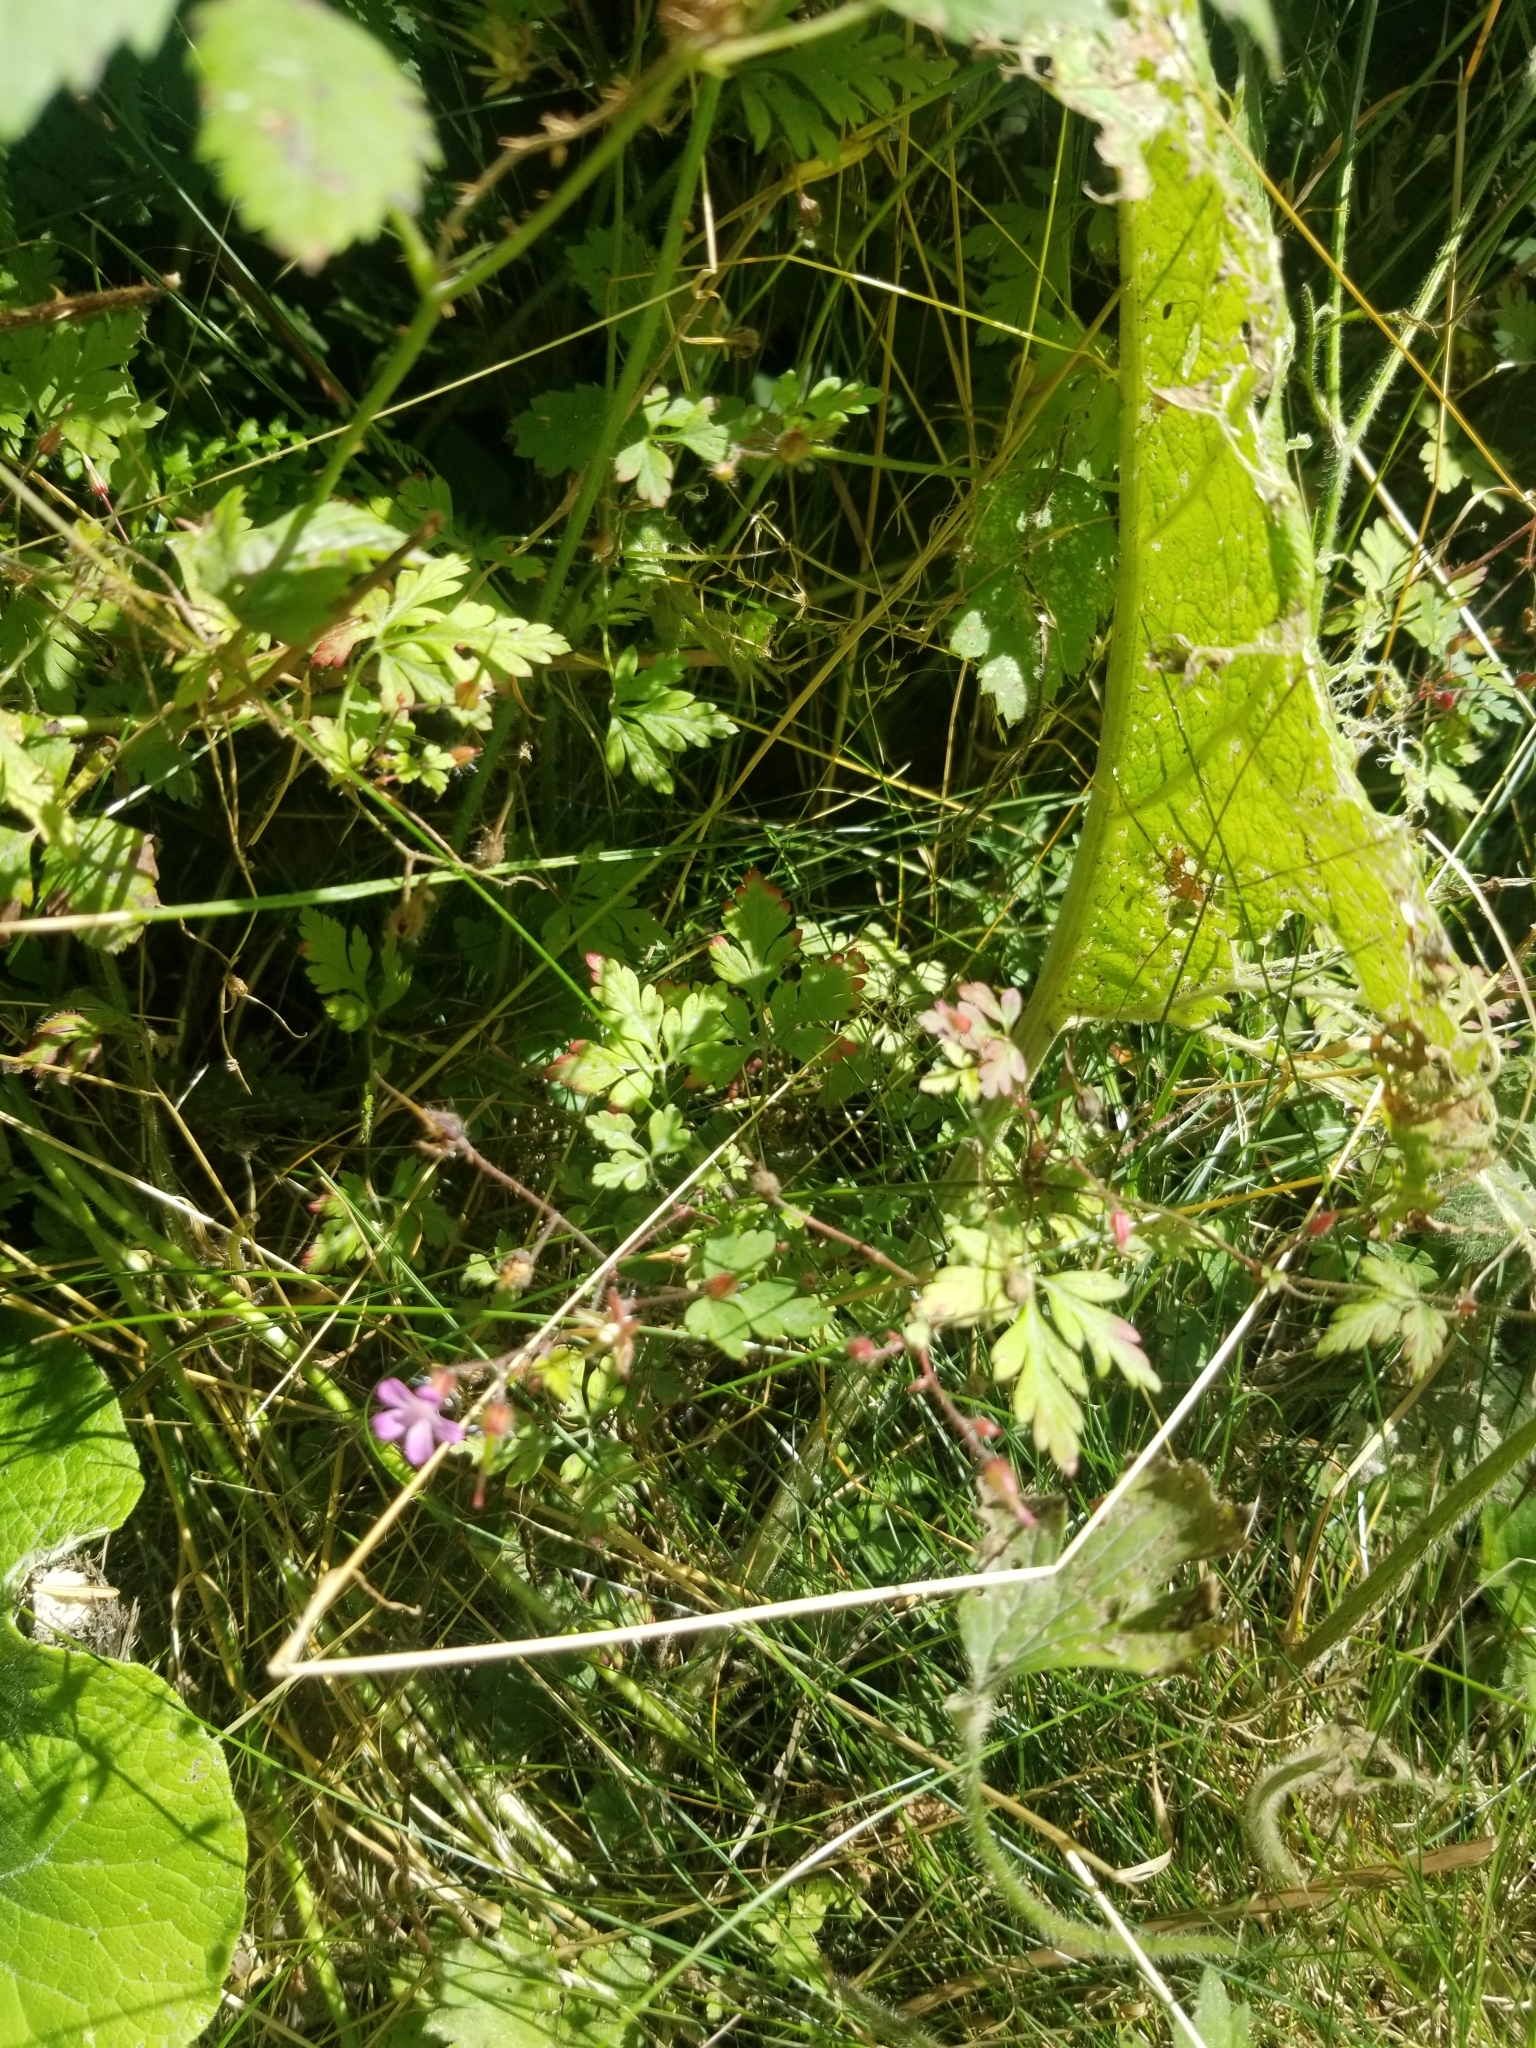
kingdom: Plantae
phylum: Tracheophyta
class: Magnoliopsida
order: Geraniales
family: Geraniaceae
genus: Geranium
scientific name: Geranium robertianum
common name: Herb-robert
